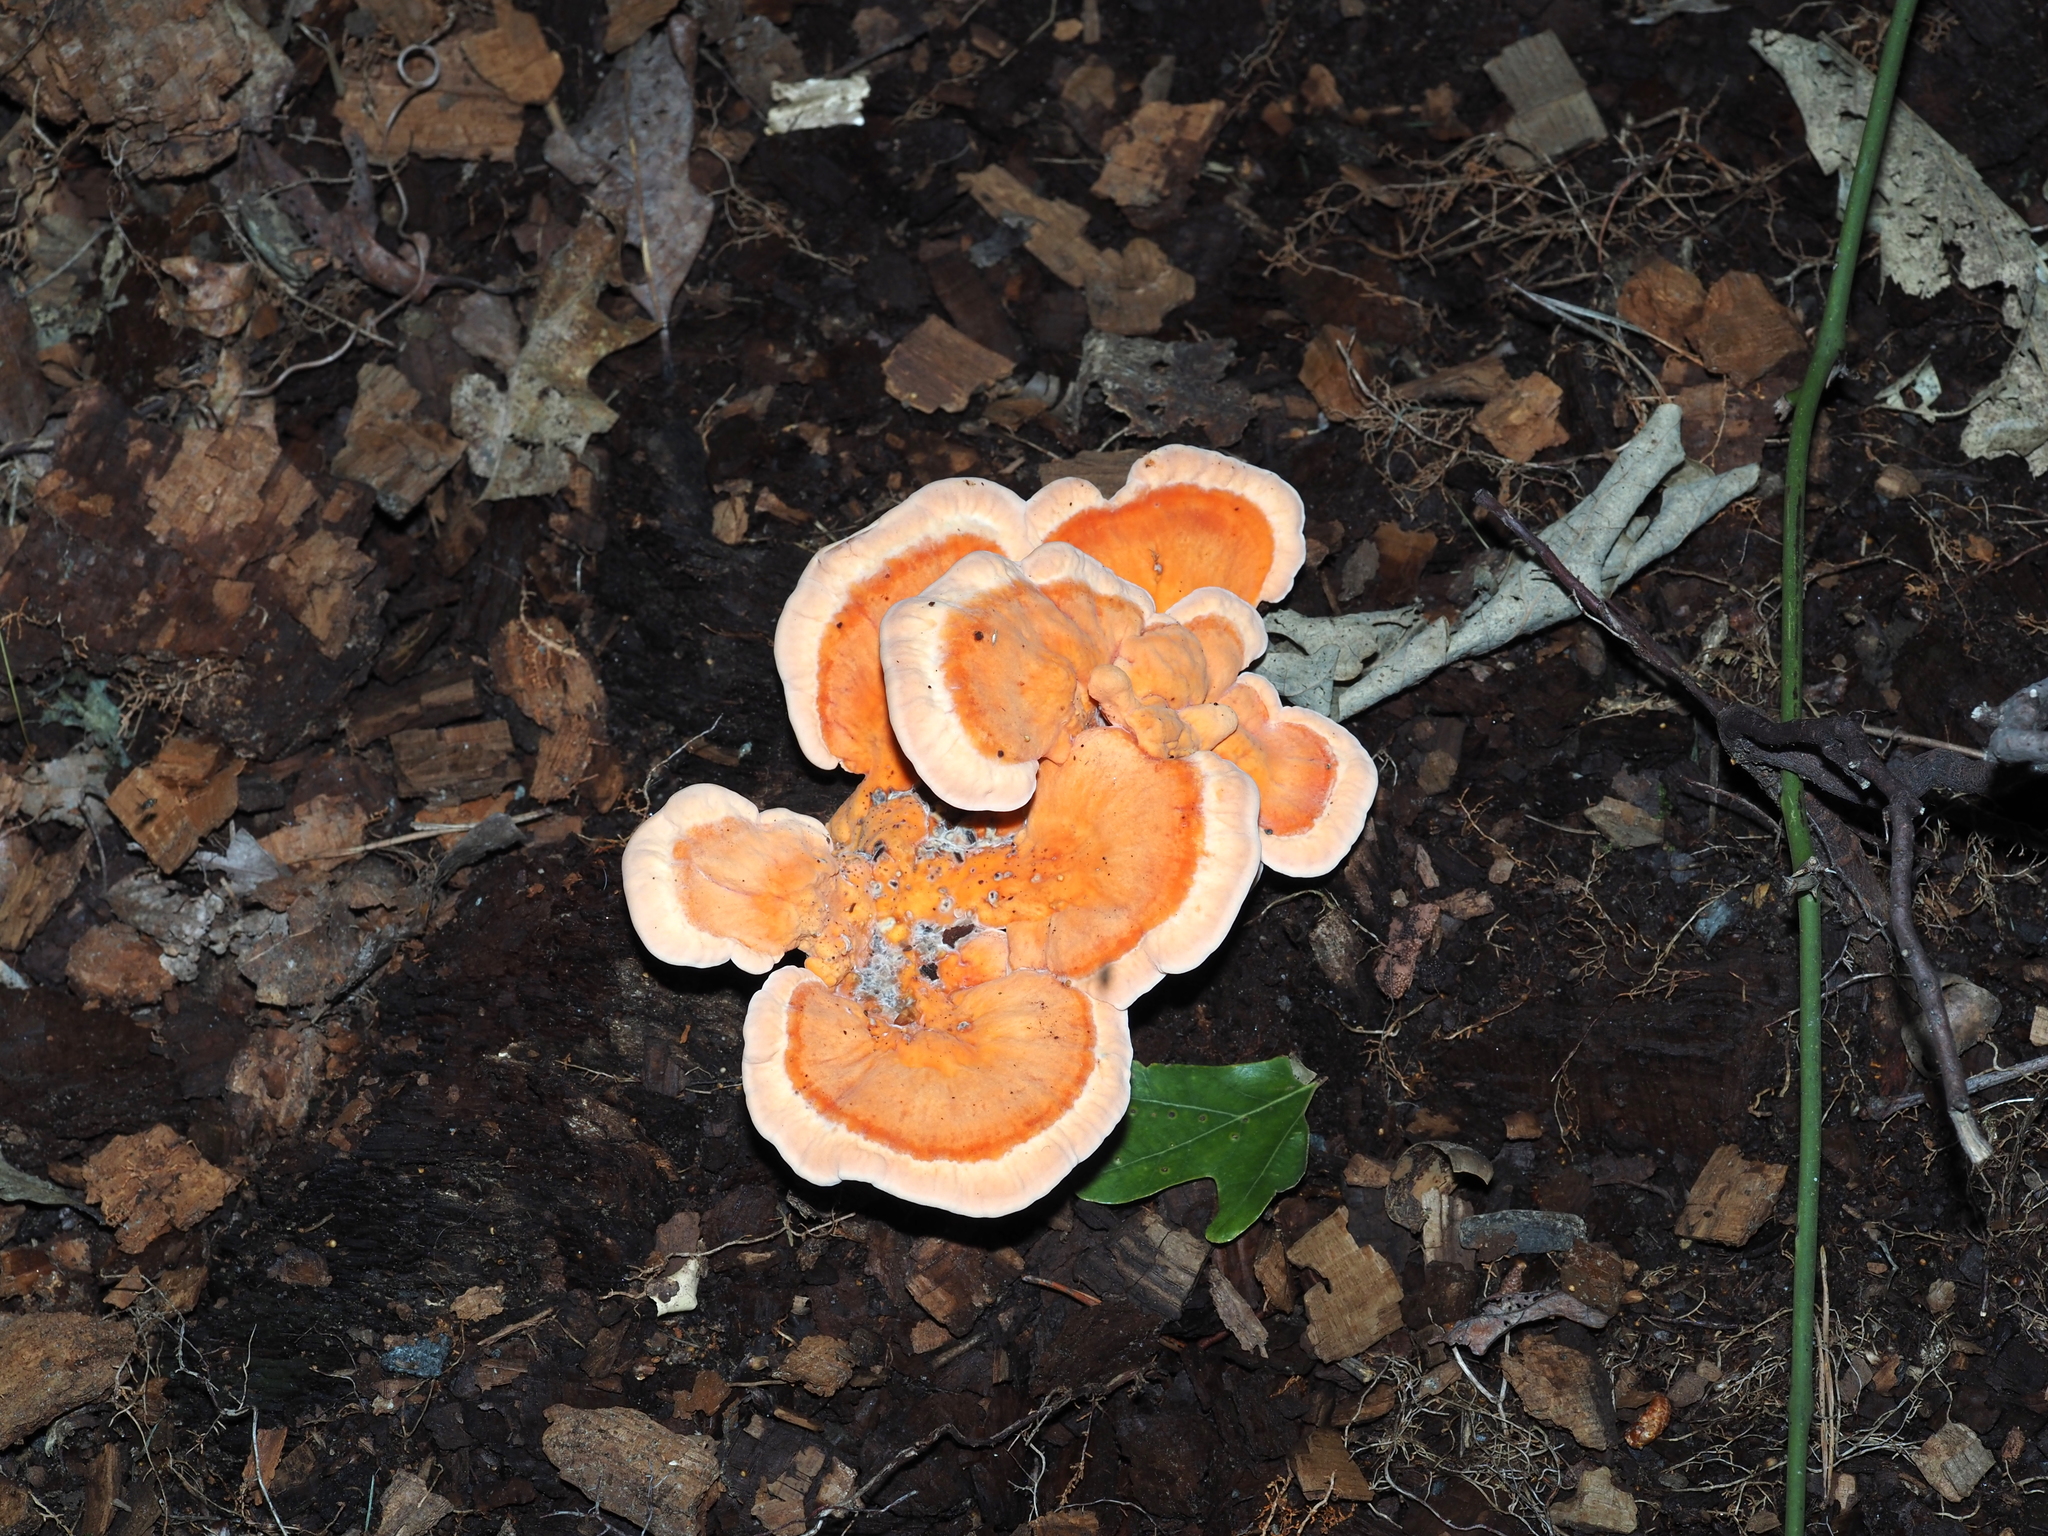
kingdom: Fungi
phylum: Basidiomycota
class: Agaricomycetes
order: Polyporales
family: Laetiporaceae
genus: Laetiporus
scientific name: Laetiporus sulphureus
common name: Chicken of the woods
